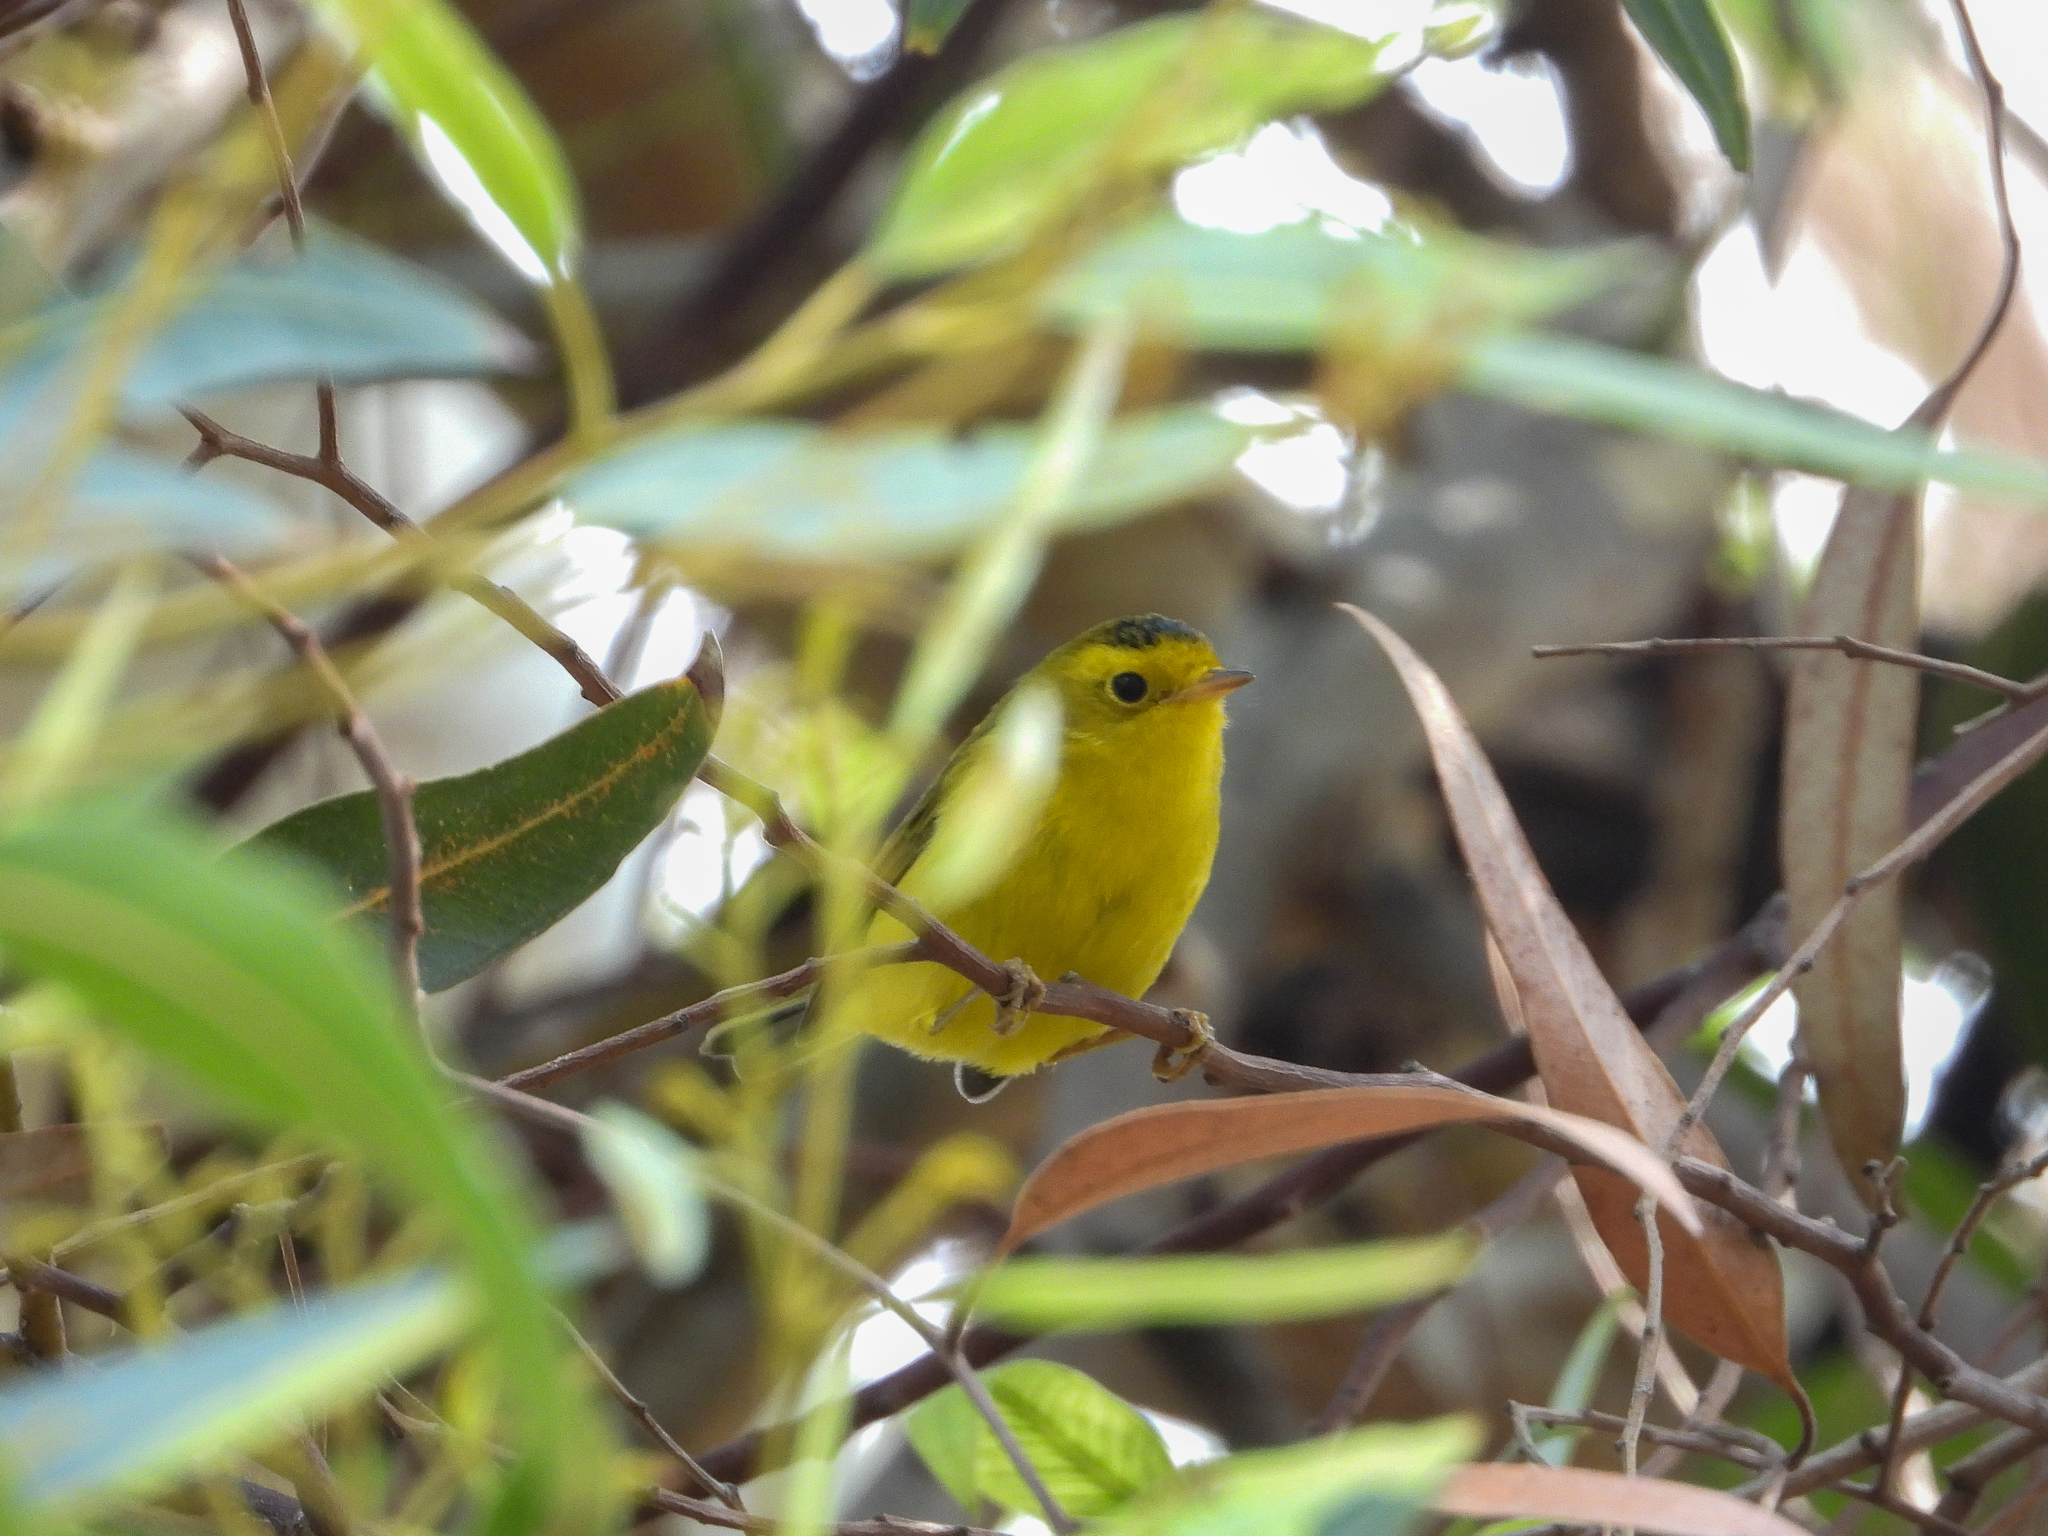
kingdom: Animalia
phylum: Chordata
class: Aves
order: Passeriformes
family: Parulidae
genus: Cardellina
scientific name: Cardellina pusilla
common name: Wilson's warbler
